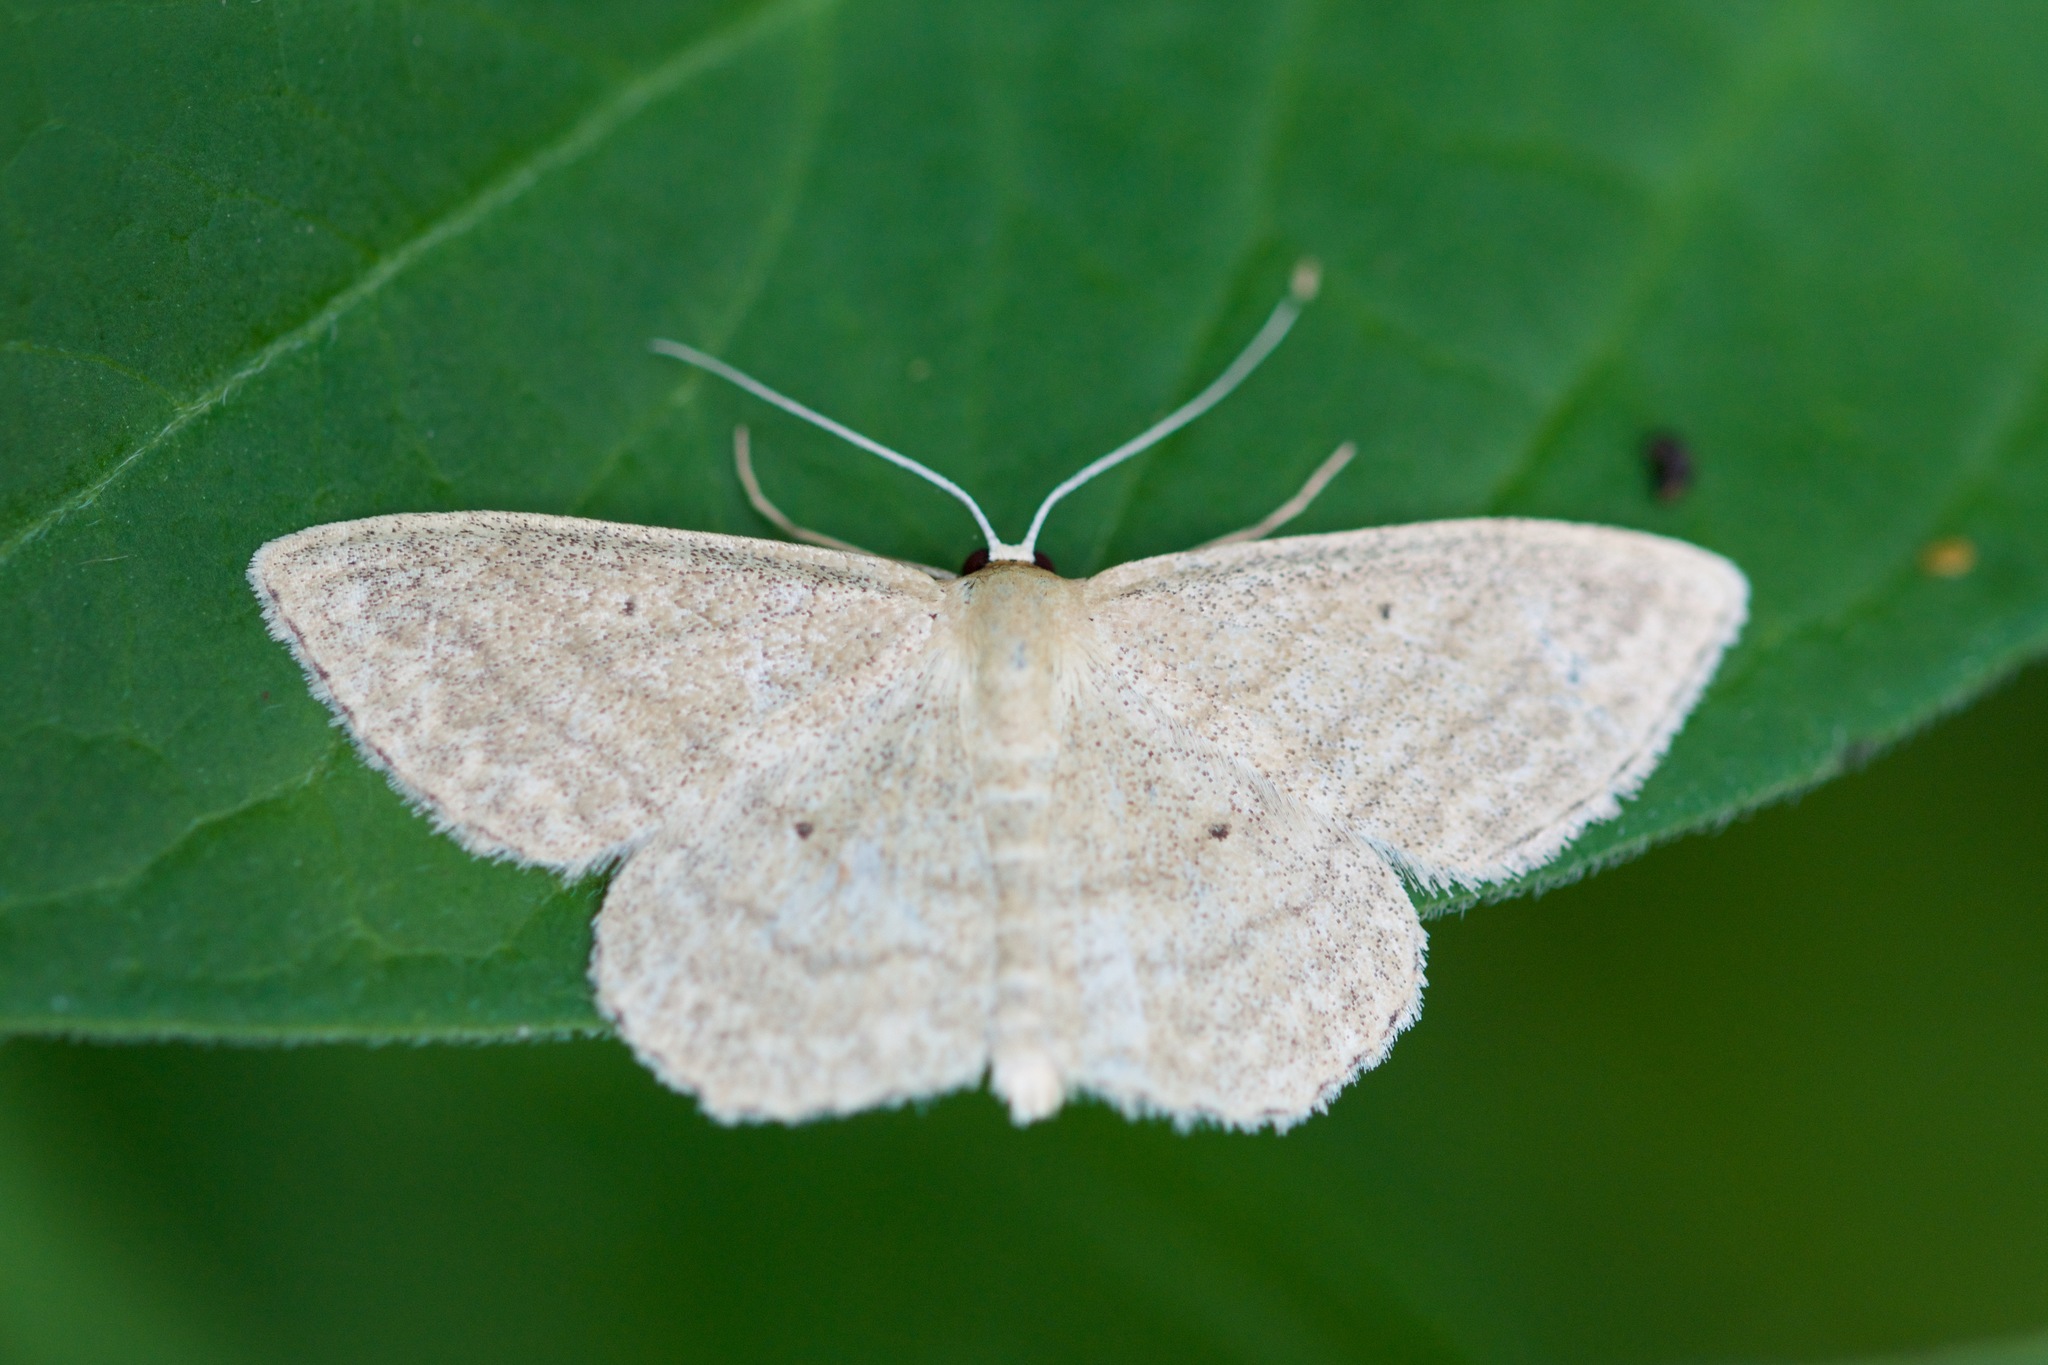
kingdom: Animalia
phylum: Arthropoda
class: Insecta
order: Lepidoptera
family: Geometridae
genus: Scopula
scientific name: Scopula inductata
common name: Soft-lined wave
